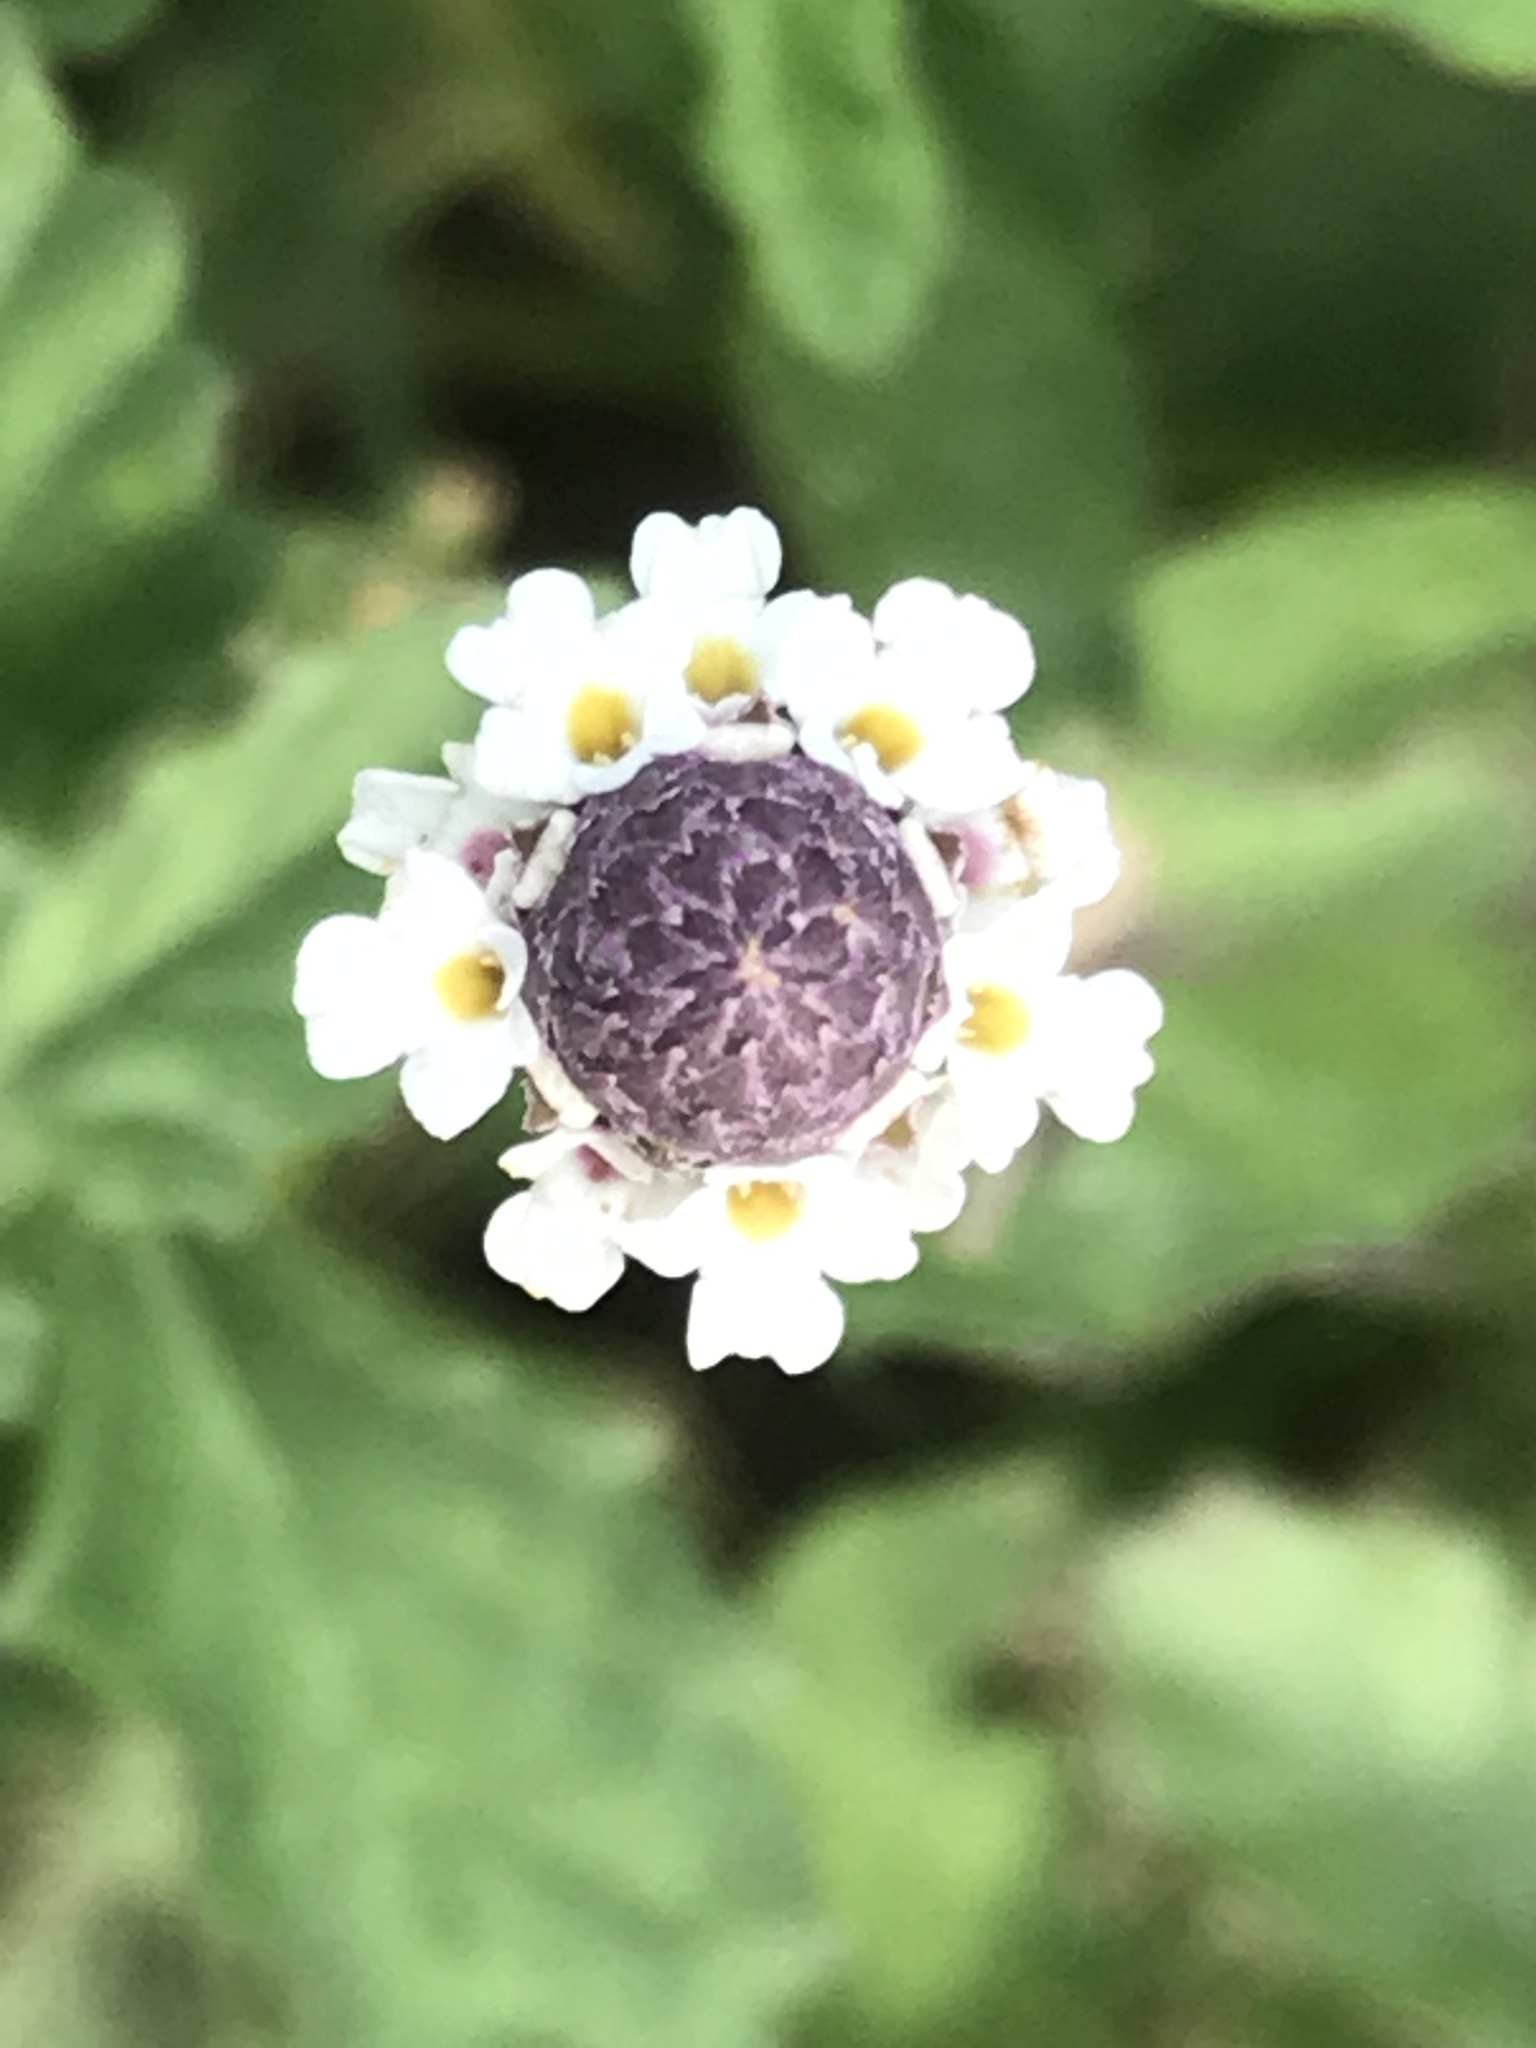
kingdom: Plantae
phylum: Tracheophyta
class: Magnoliopsida
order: Lamiales
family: Verbenaceae
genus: Phyla
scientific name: Phyla nodiflora
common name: Frogfruit
